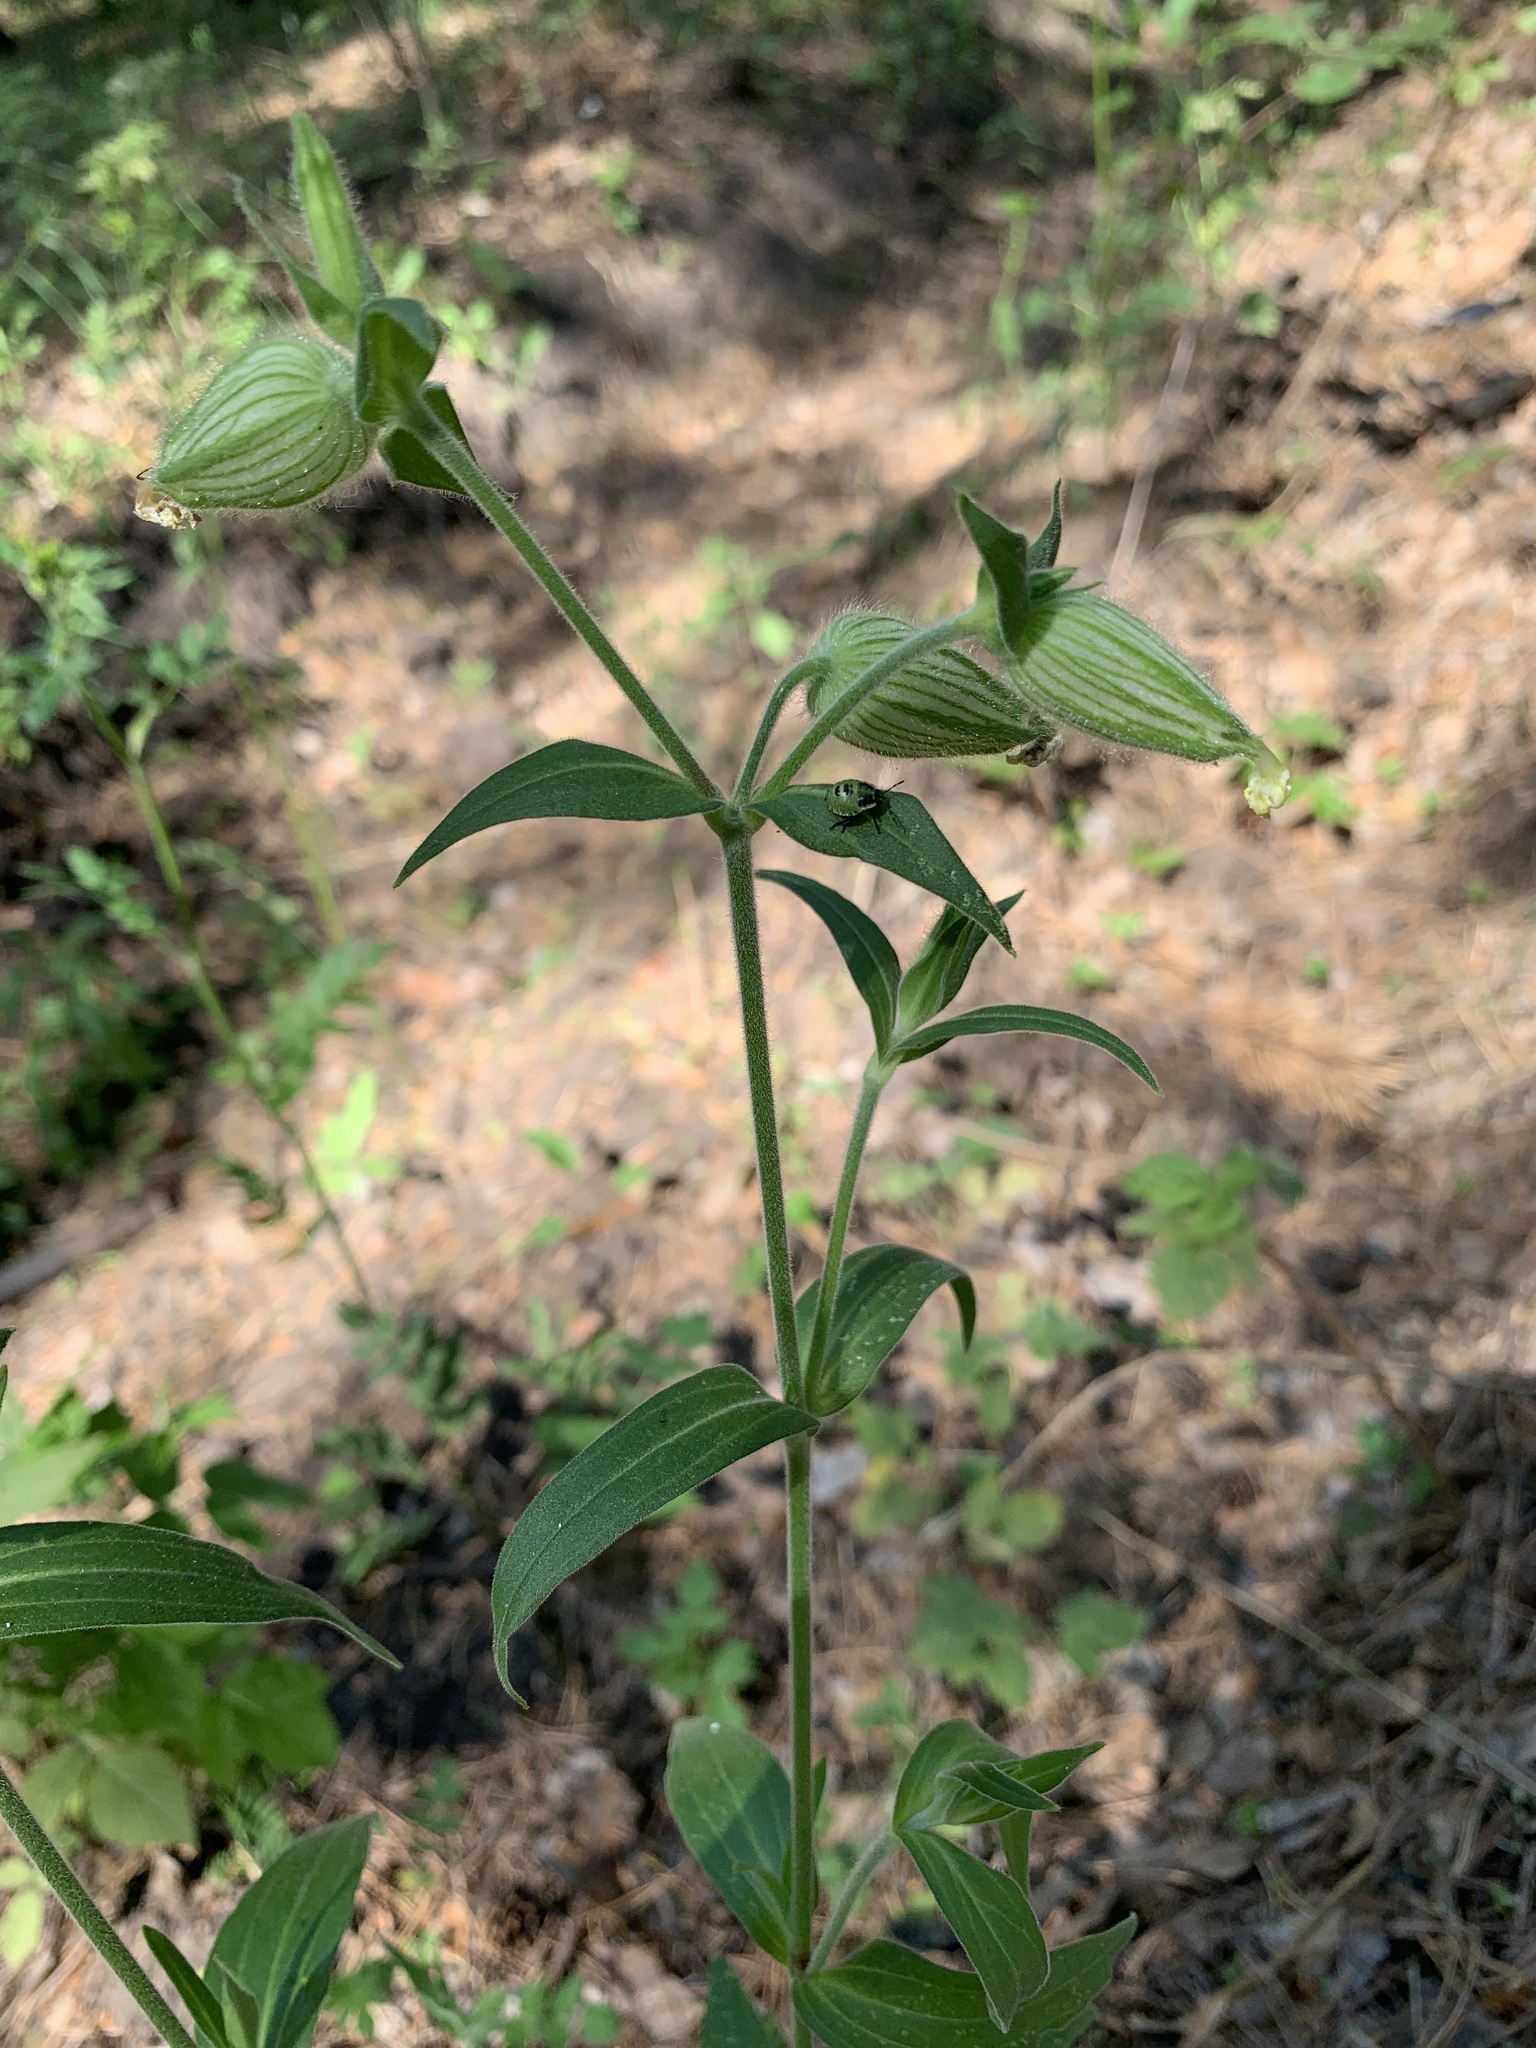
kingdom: Plantae
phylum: Tracheophyta
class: Magnoliopsida
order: Caryophyllales
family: Caryophyllaceae
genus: Silene
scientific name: Silene latifolia
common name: White campion
